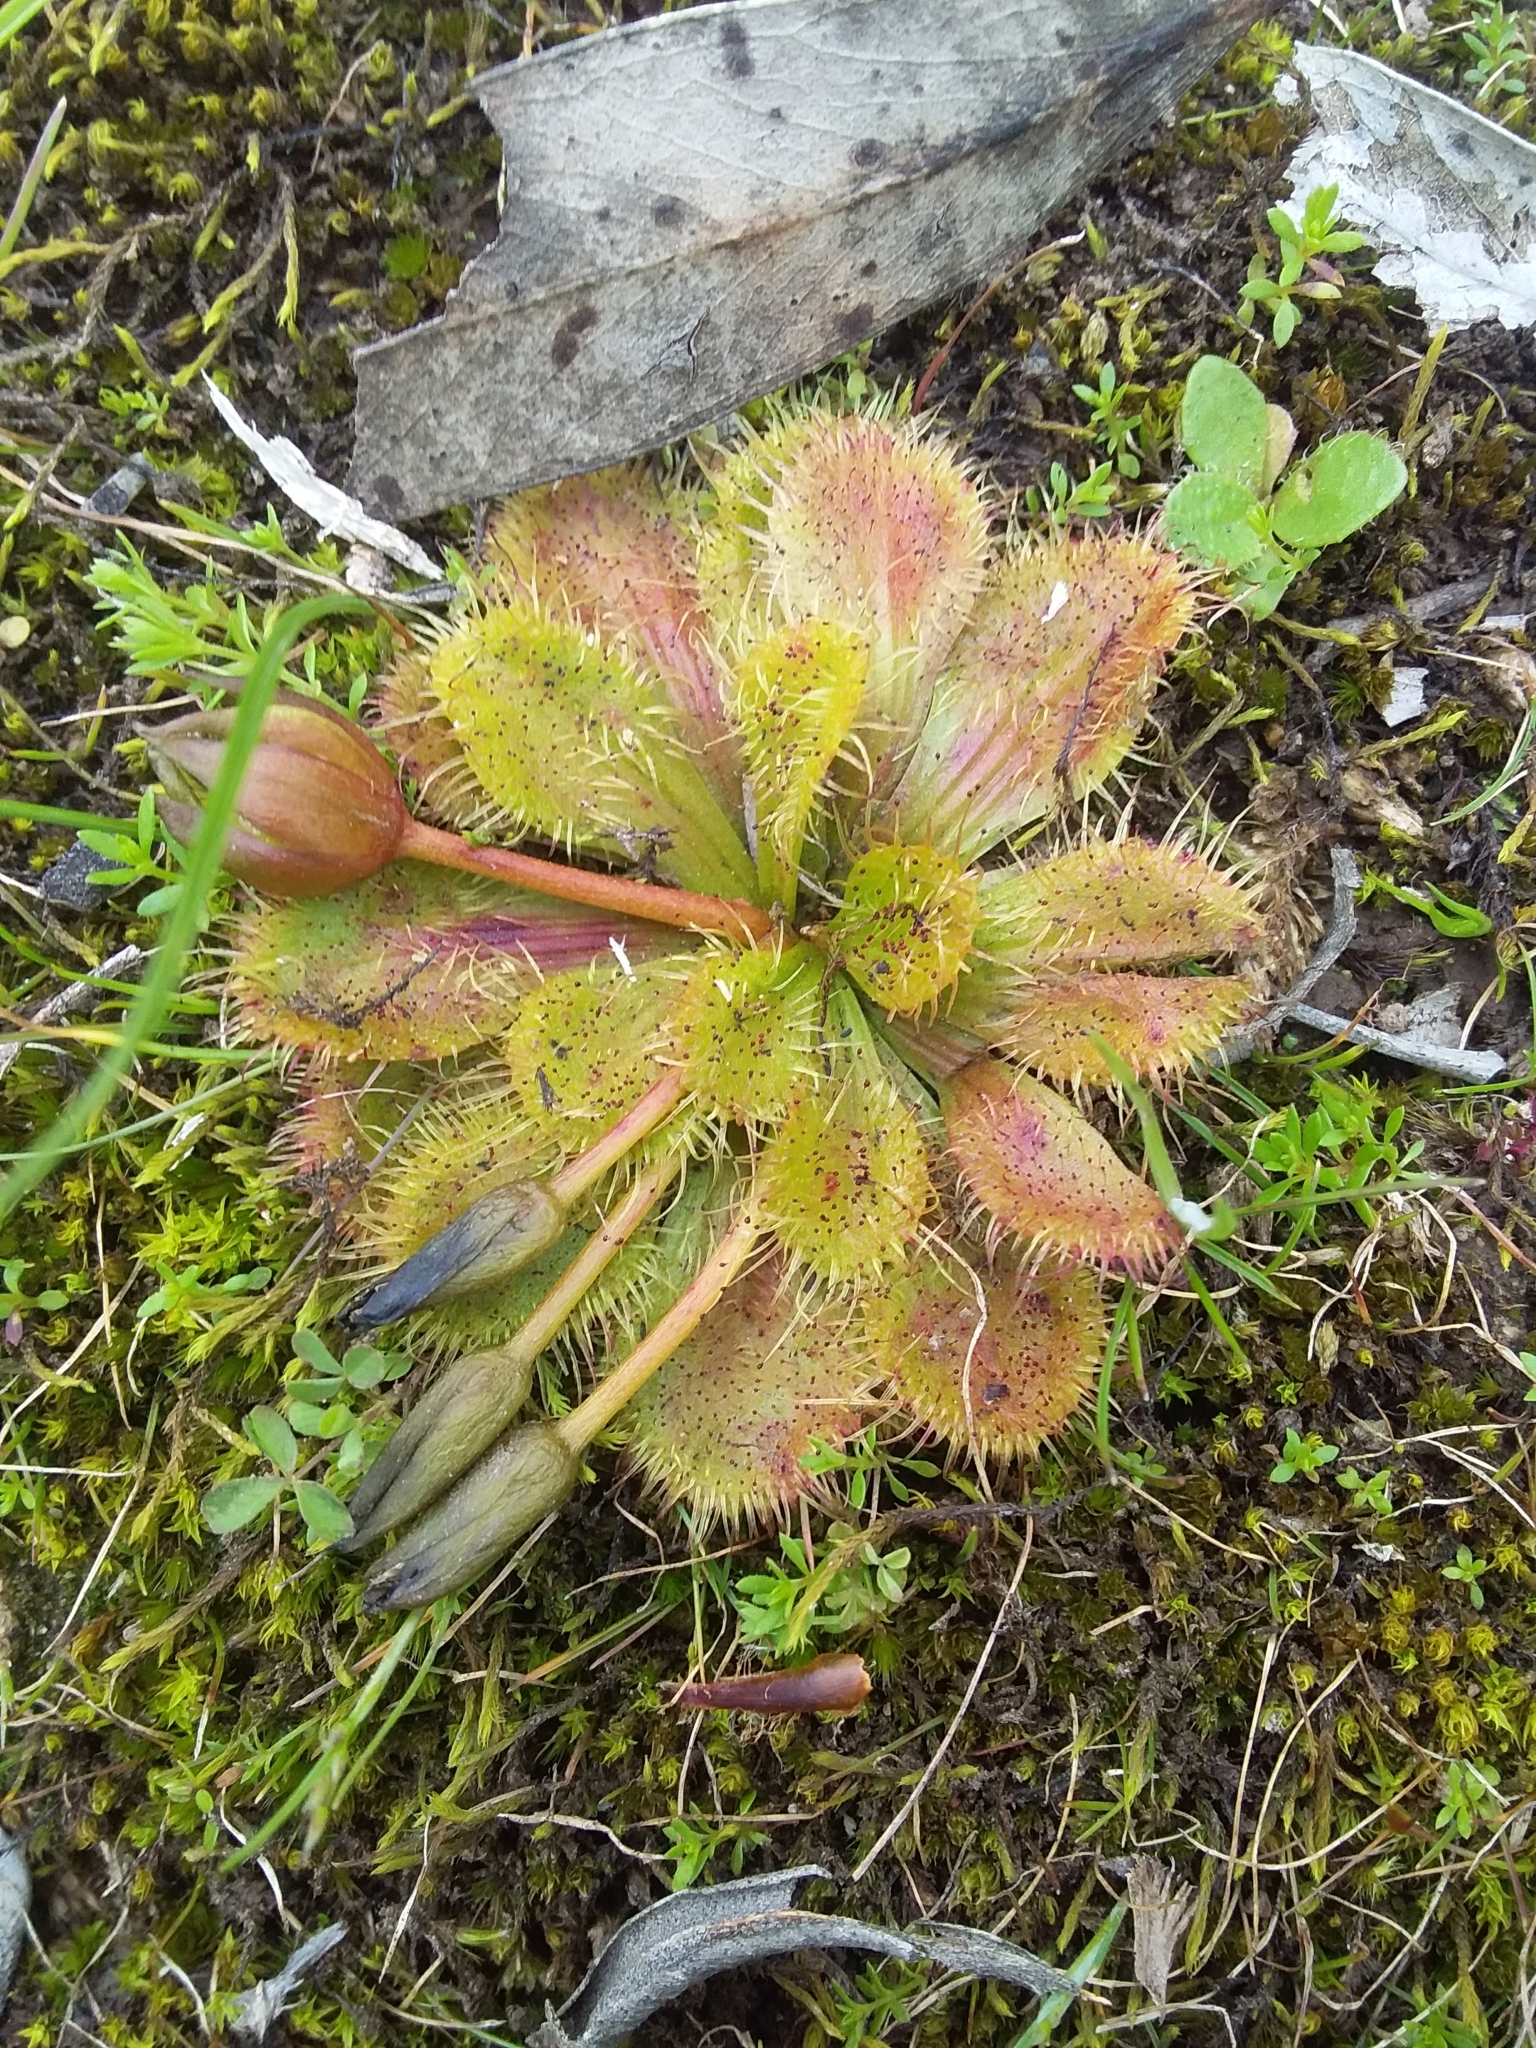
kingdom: Plantae
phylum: Tracheophyta
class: Magnoliopsida
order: Caryophyllales
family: Droseraceae
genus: Drosera
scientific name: Drosera whittakeri
